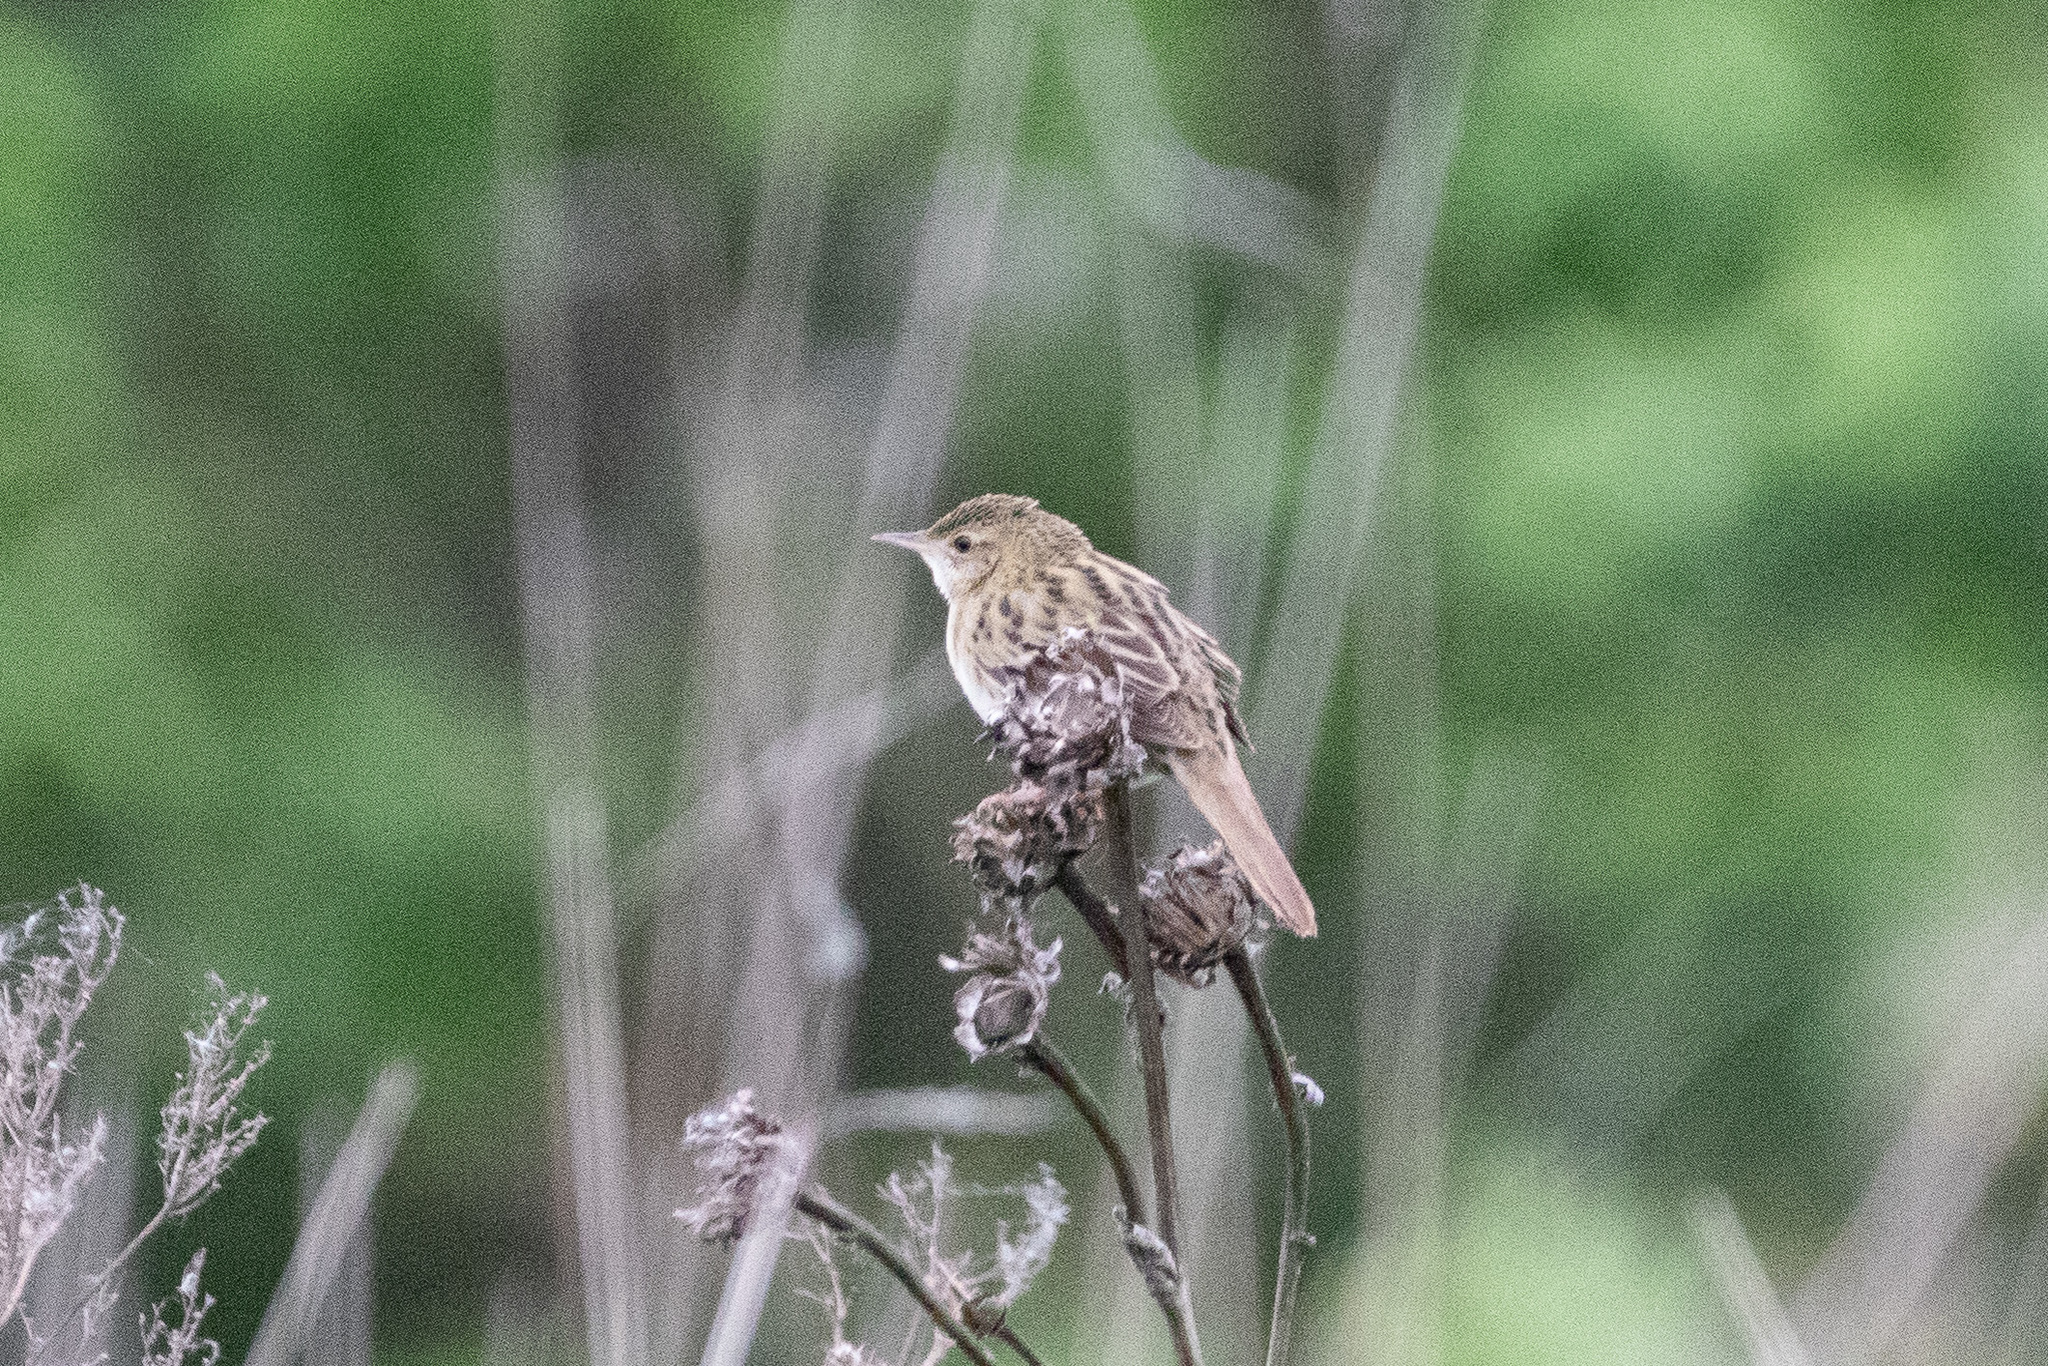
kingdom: Animalia
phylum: Chordata
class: Aves
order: Passeriformes
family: Locustellidae
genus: Locustella
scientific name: Locustella naevia
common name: Common grasshopper warbler
